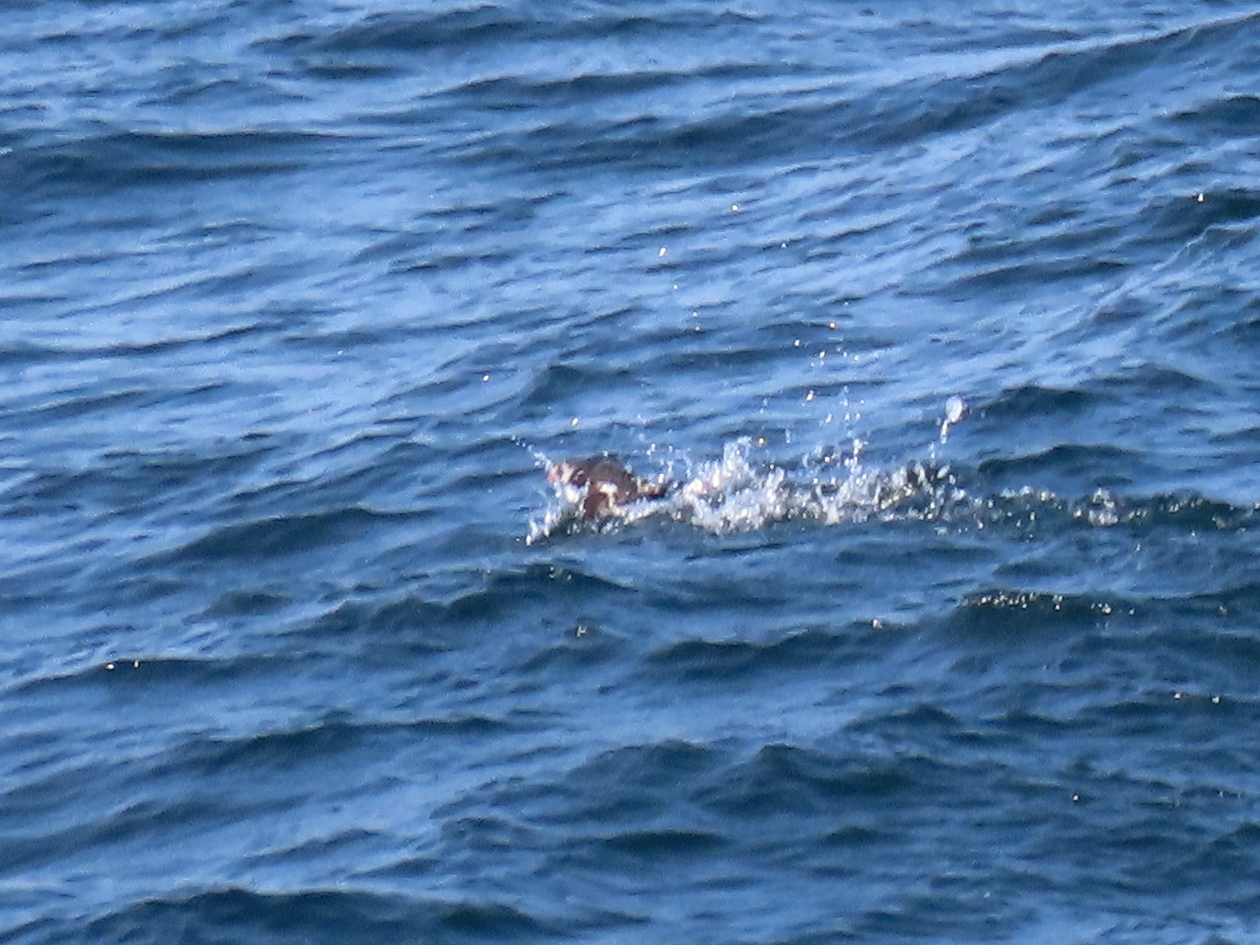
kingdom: Animalia
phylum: Chordata
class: Aves
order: Charadriiformes
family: Alcidae
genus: Fratercula
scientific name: Fratercula arctica
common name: Atlantic puffin
